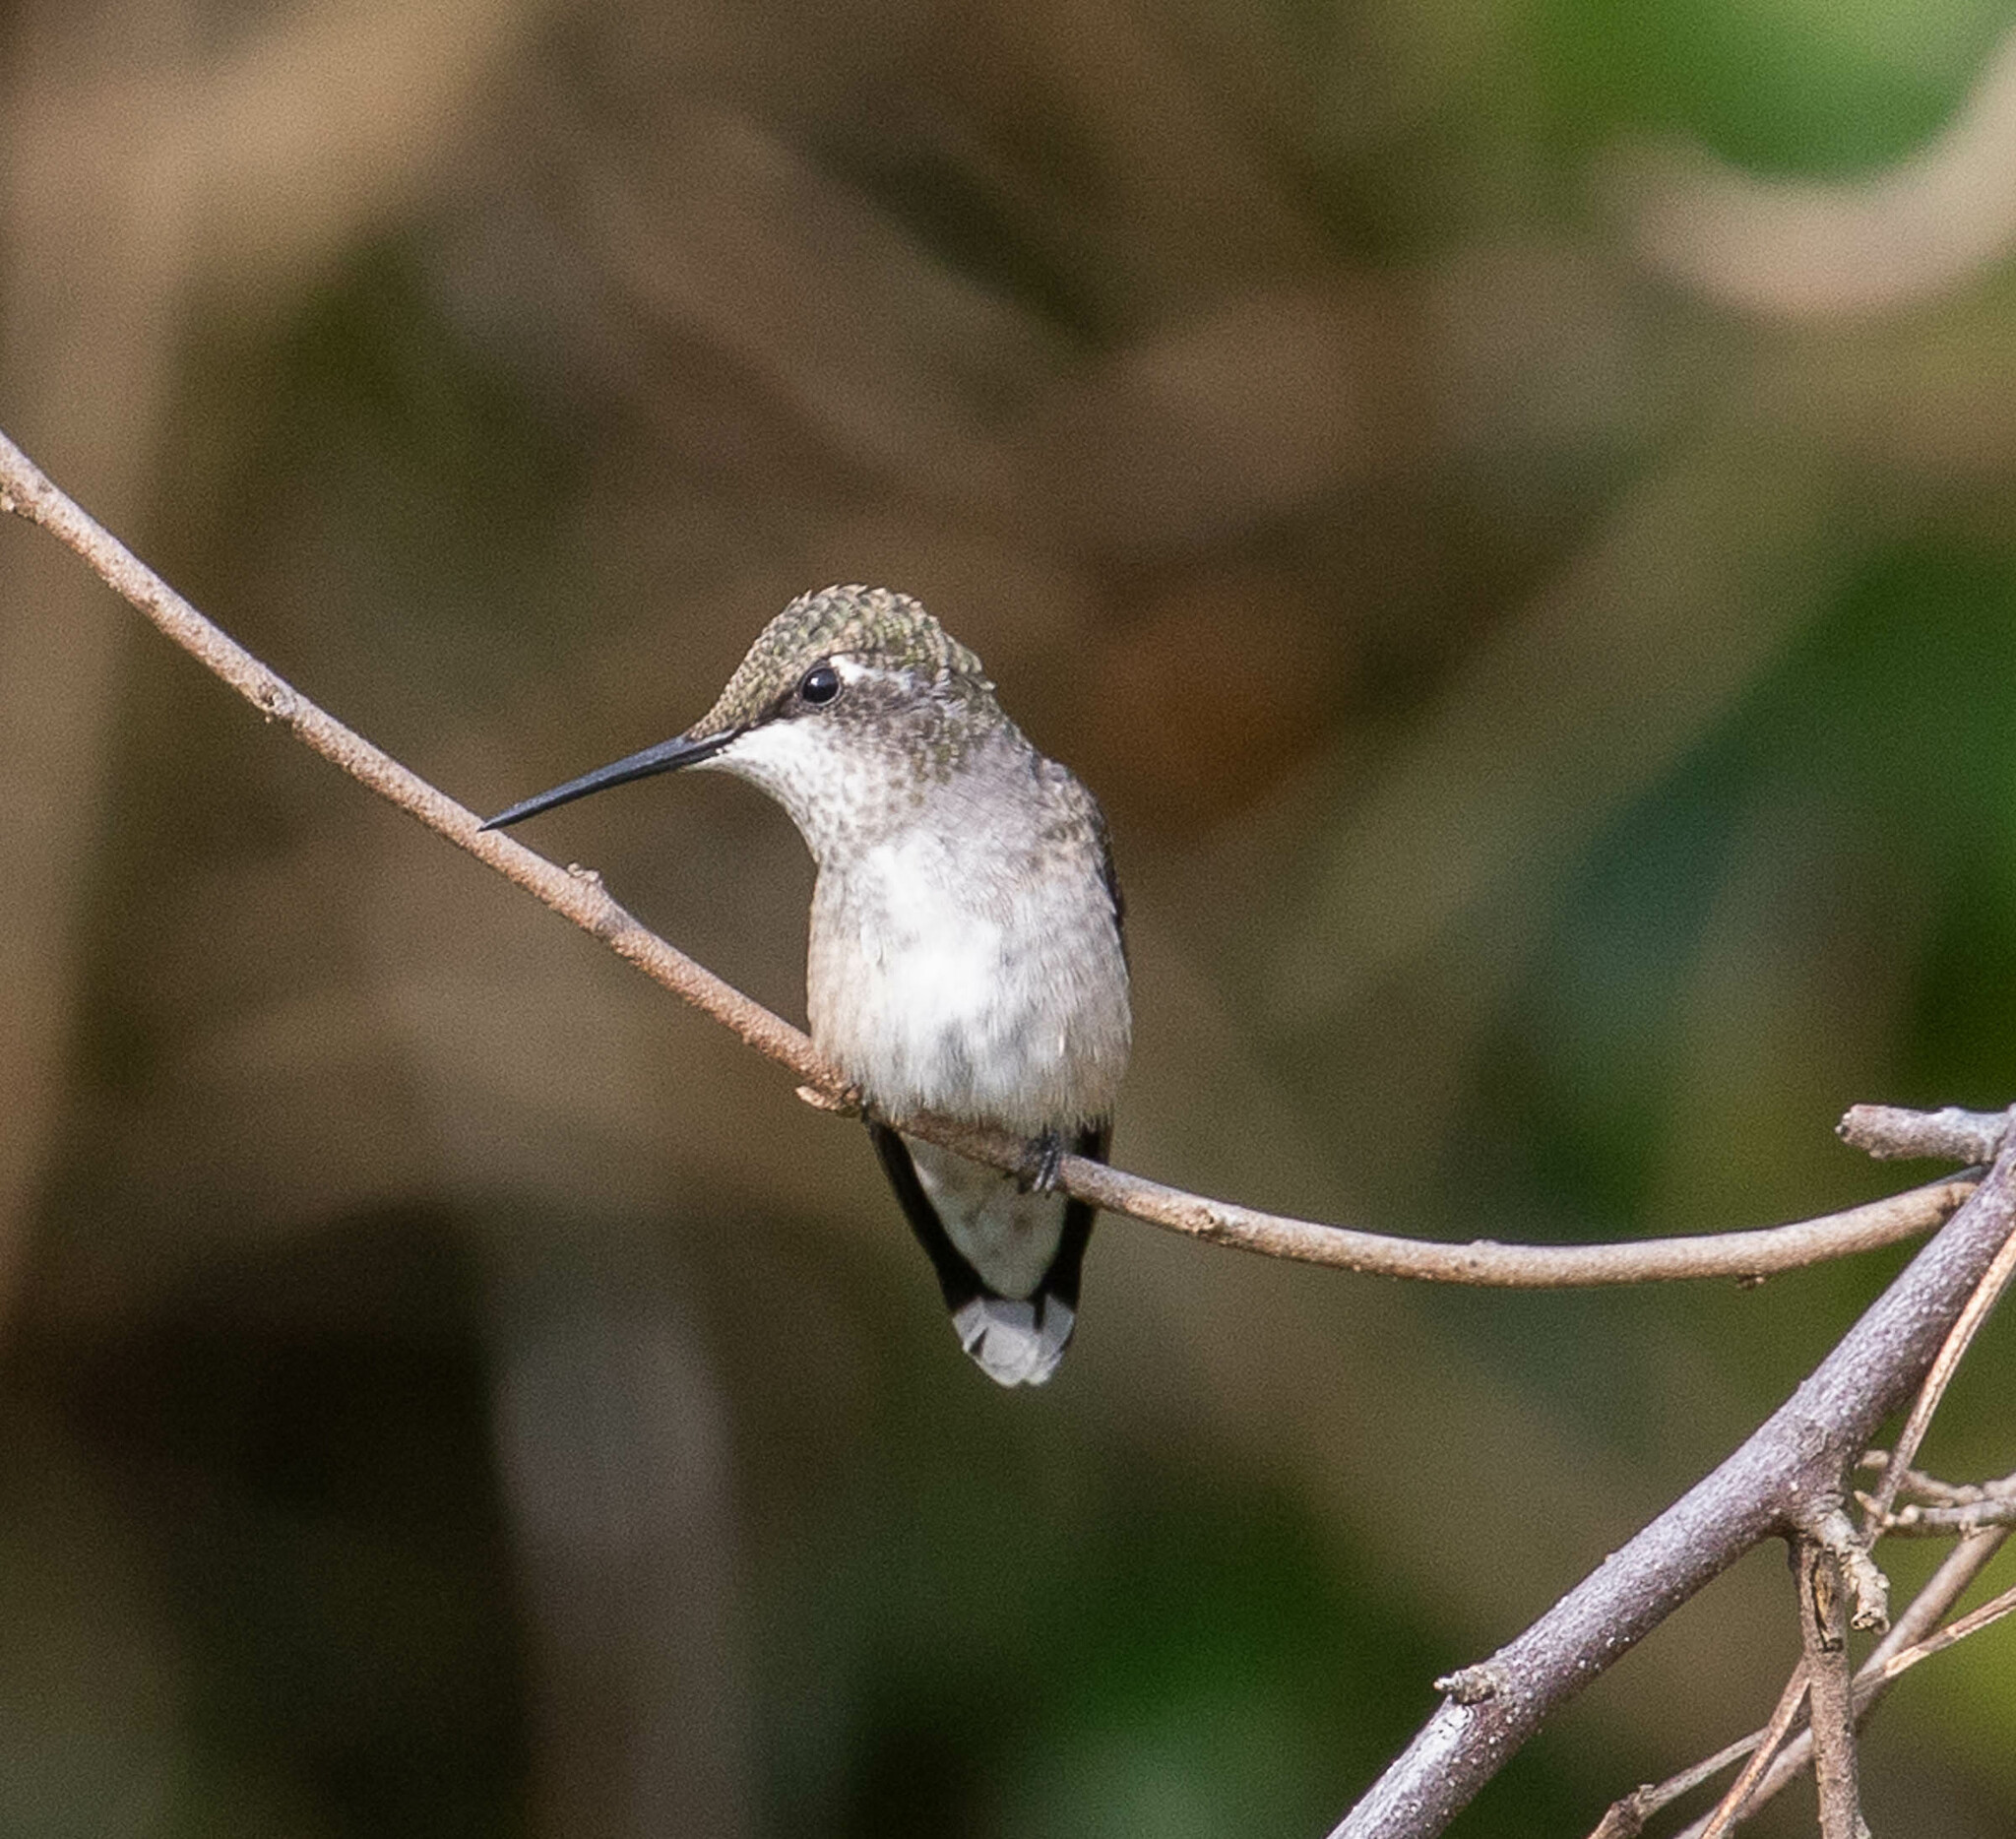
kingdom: Animalia
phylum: Chordata
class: Aves
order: Apodiformes
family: Trochilidae
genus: Archilochus
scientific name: Archilochus colubris
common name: Ruby-throated hummingbird
